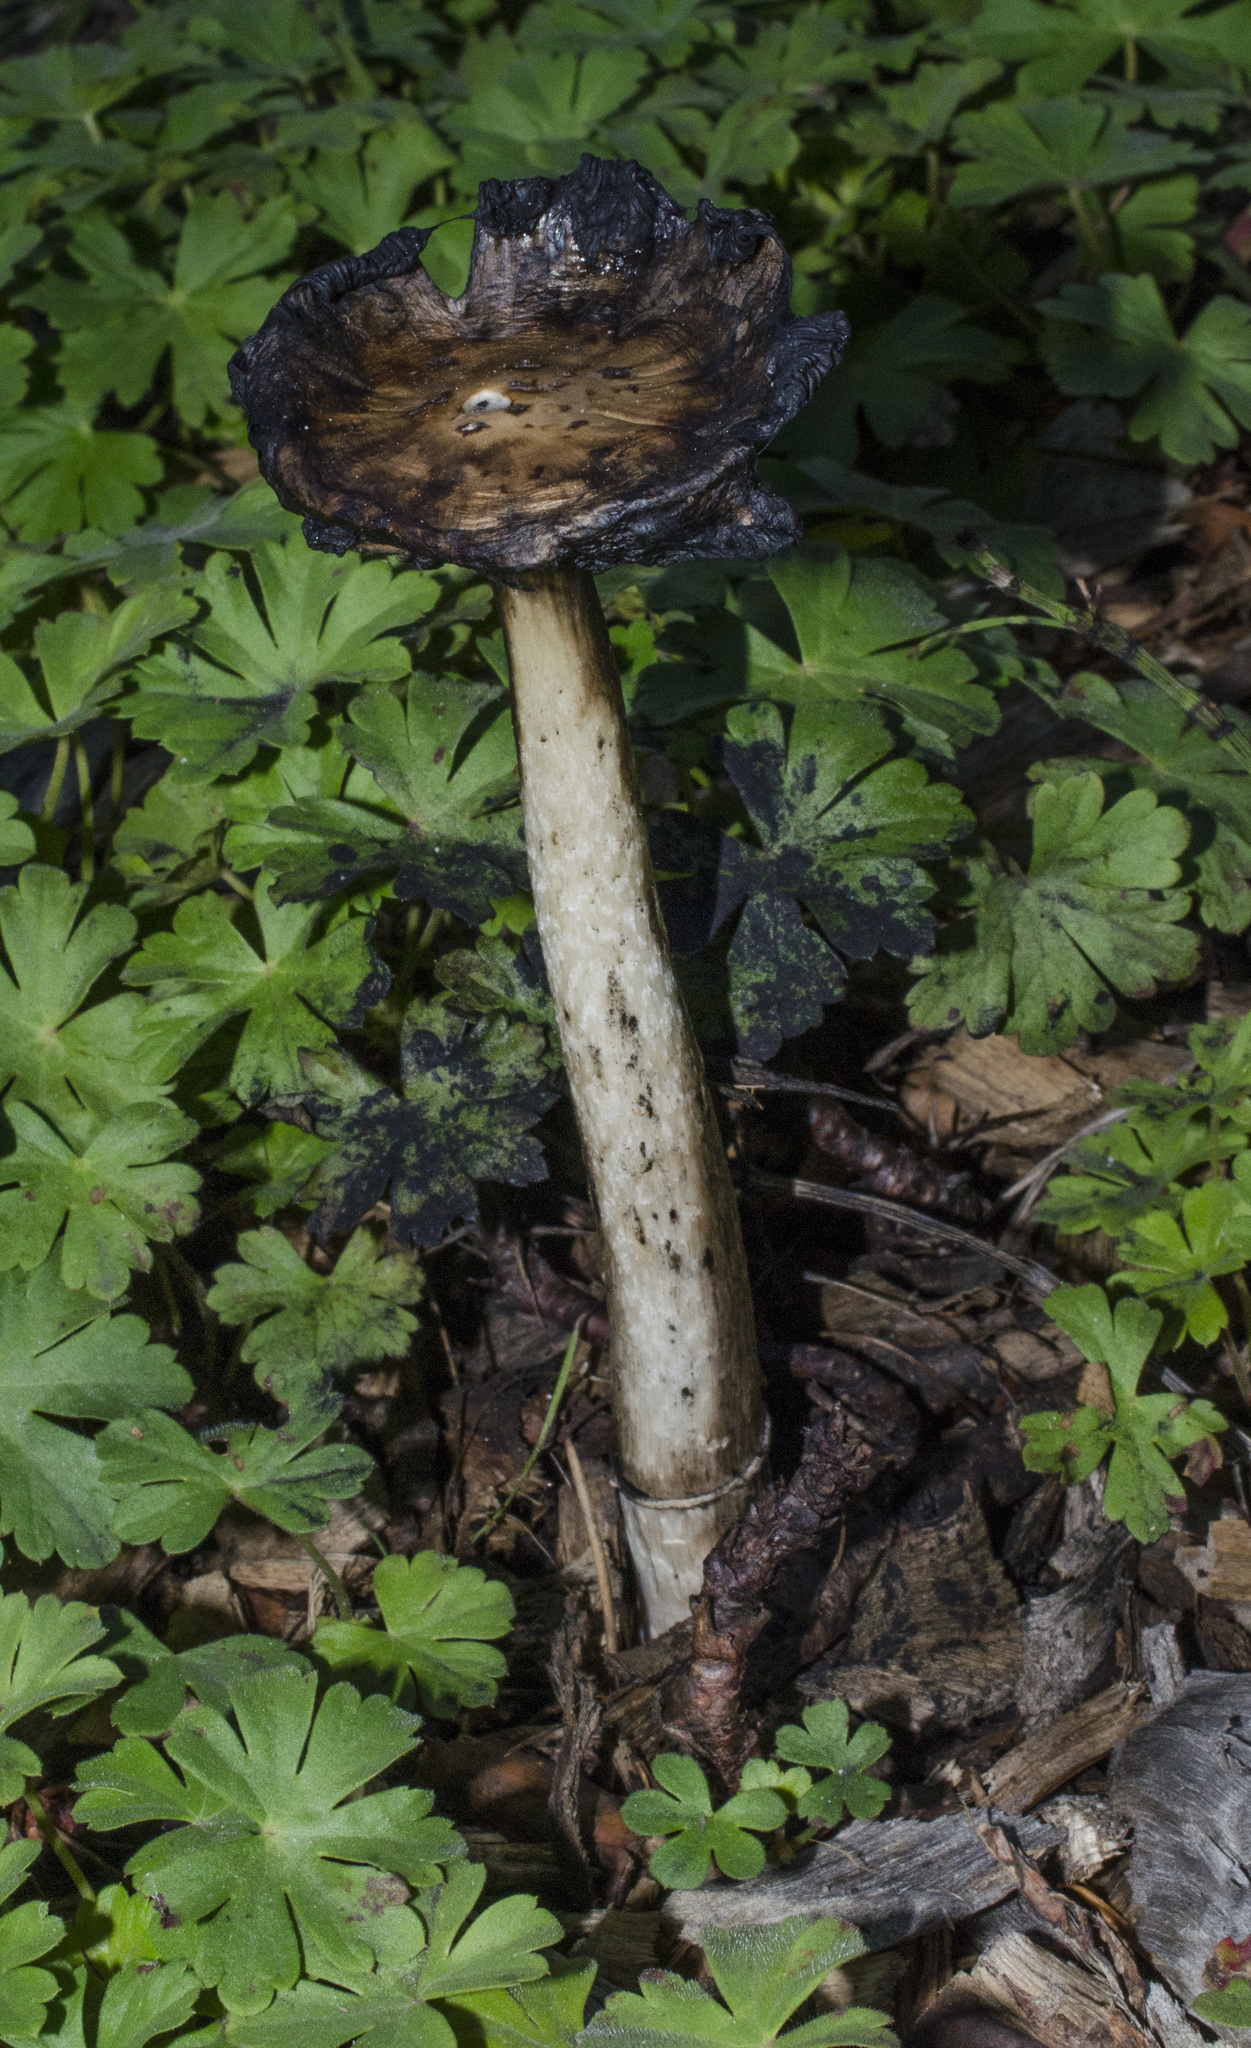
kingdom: Fungi
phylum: Basidiomycota
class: Agaricomycetes
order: Agaricales
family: Agaricaceae
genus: Coprinus
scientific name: Coprinus comatus
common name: Lawyer's wig
